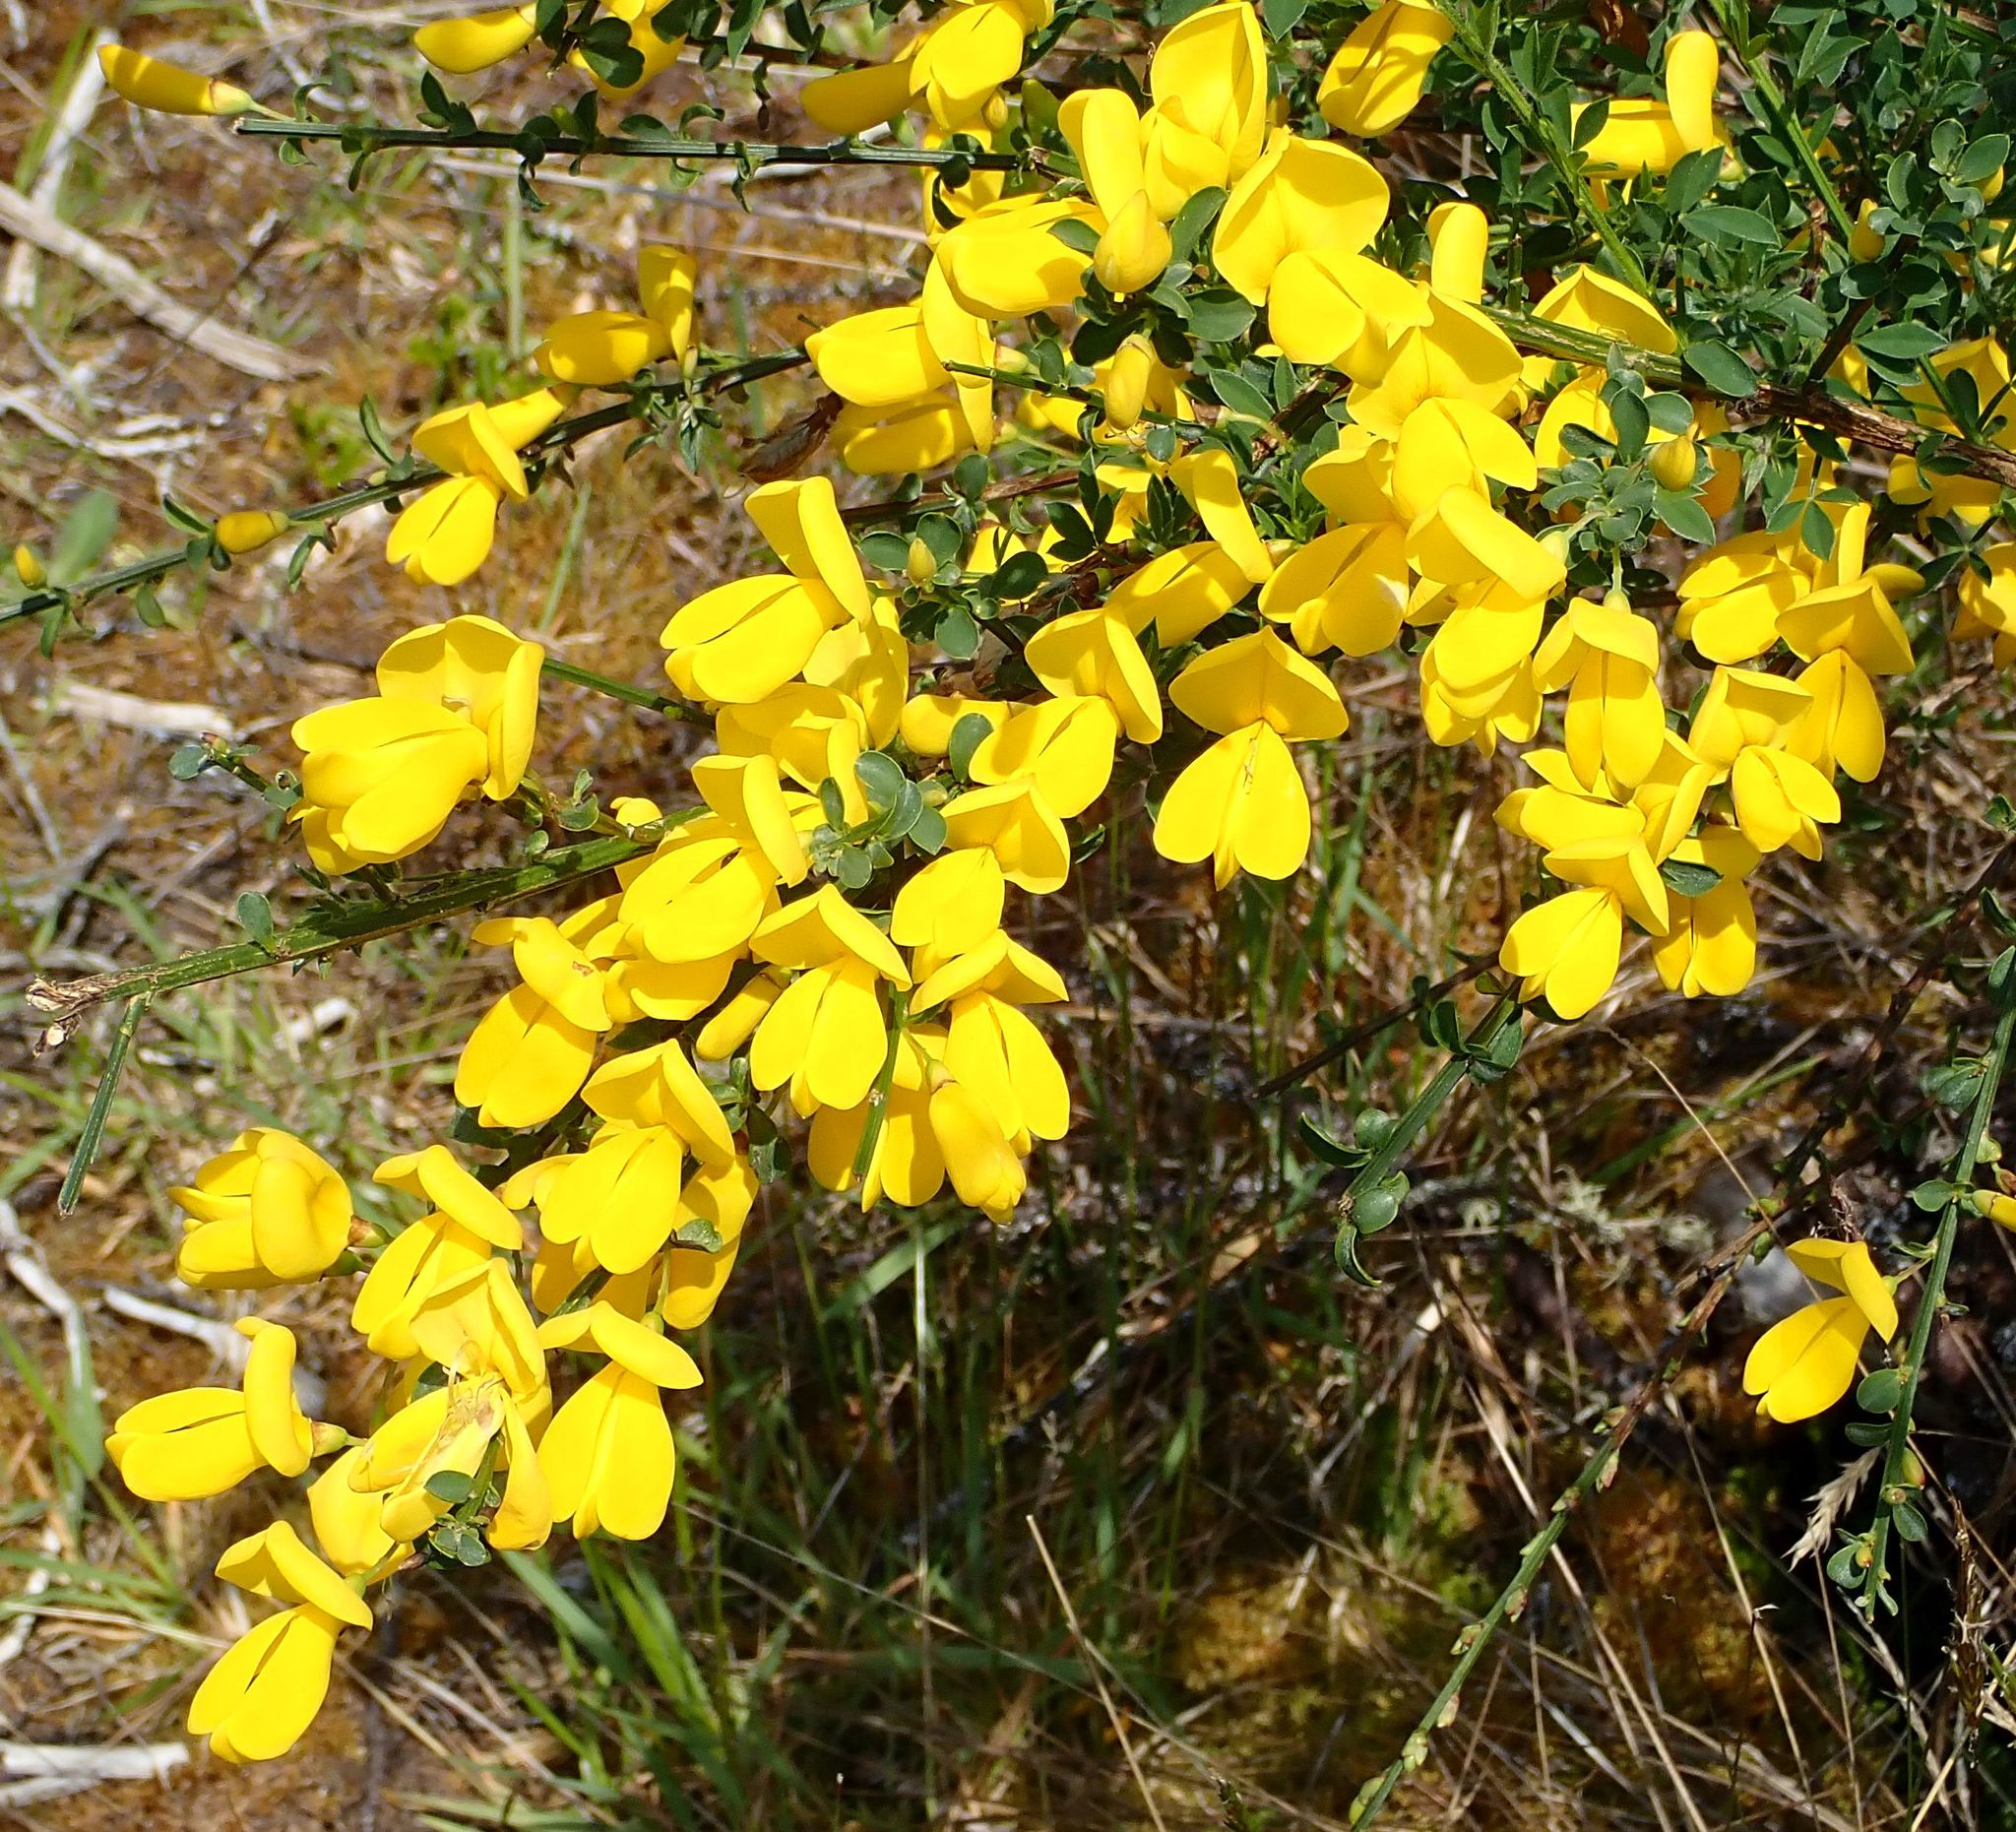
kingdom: Plantae
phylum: Tracheophyta
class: Magnoliopsida
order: Fabales
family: Fabaceae
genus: Cytisus
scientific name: Cytisus scoparius
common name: Scotch broom
